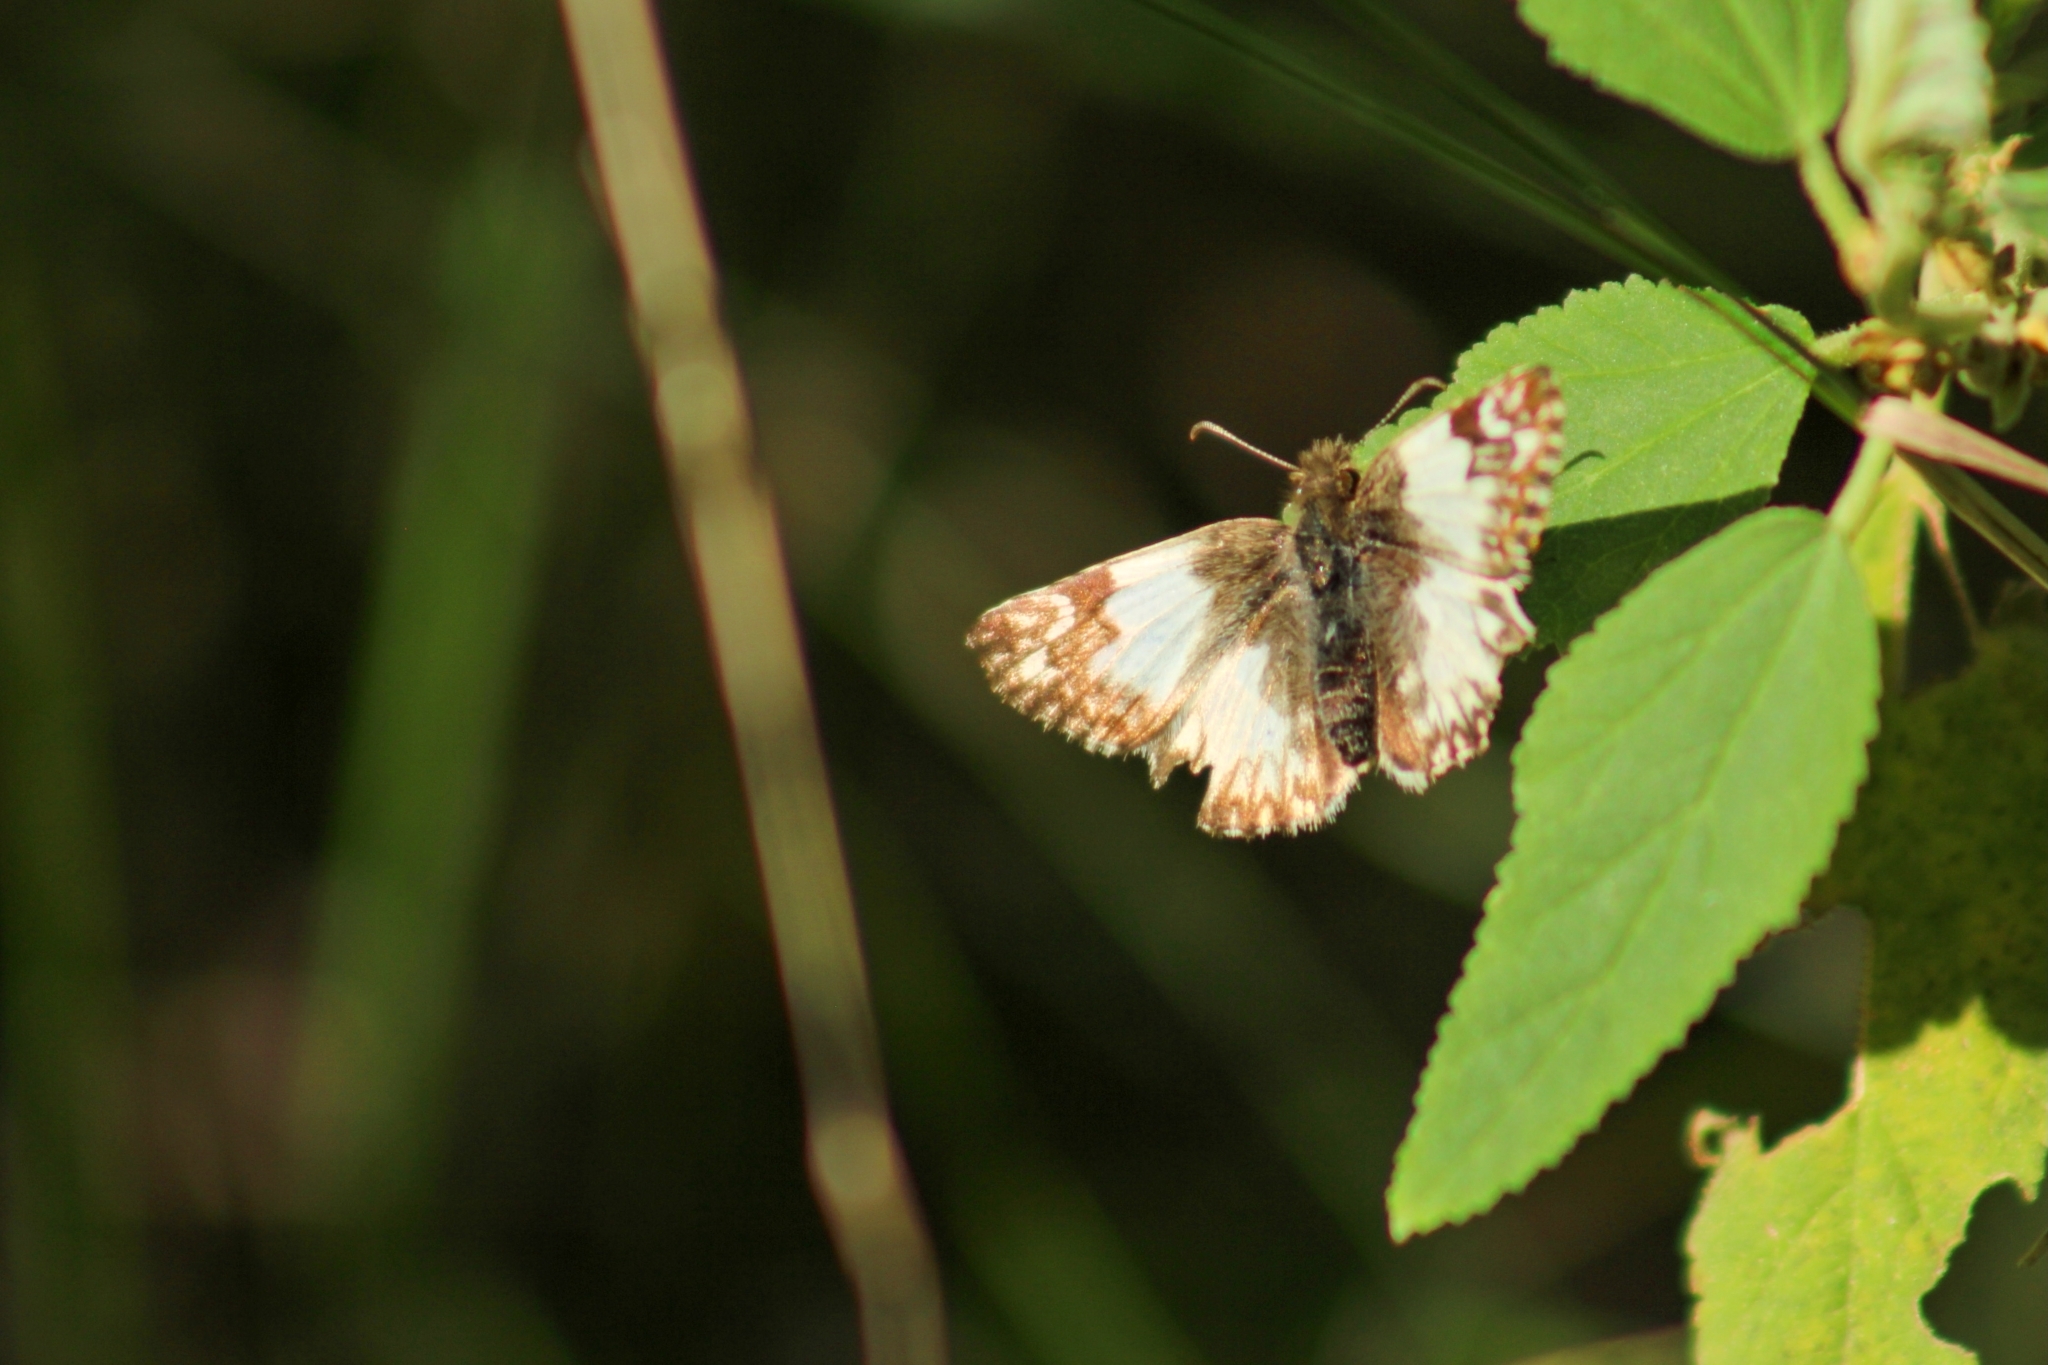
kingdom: Animalia
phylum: Arthropoda
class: Insecta
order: Lepidoptera
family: Hesperiidae
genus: Heliopetes
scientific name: Heliopetes omrina
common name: Stained white-skipper
